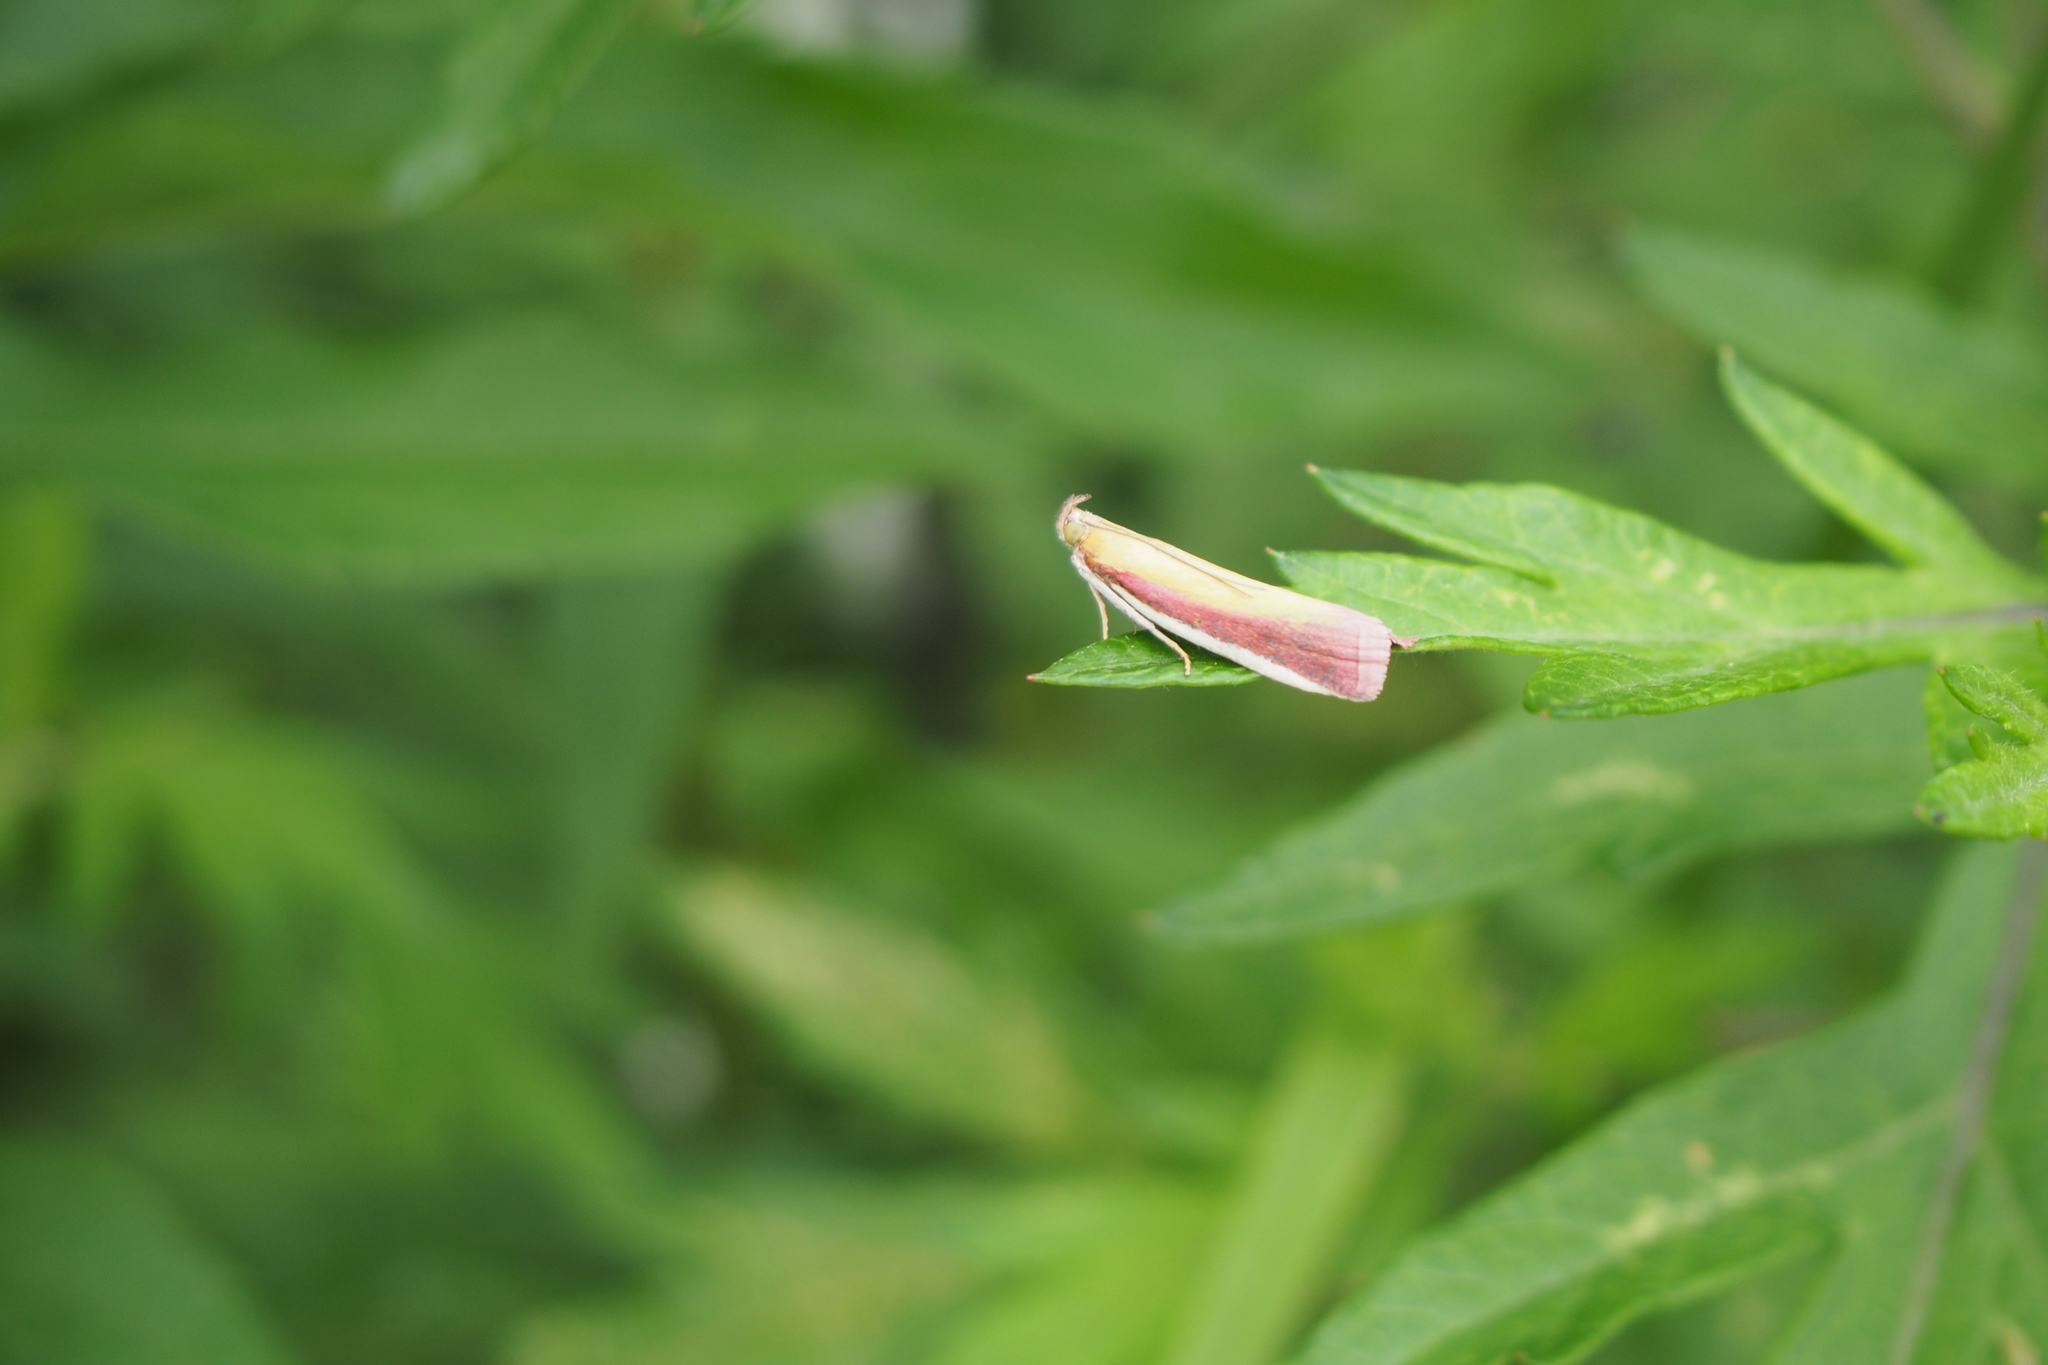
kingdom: Animalia
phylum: Arthropoda
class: Insecta
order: Lepidoptera
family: Pyralidae
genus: Oncocera
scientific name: Oncocera semirubella
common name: Rosy-striped knot-horn
